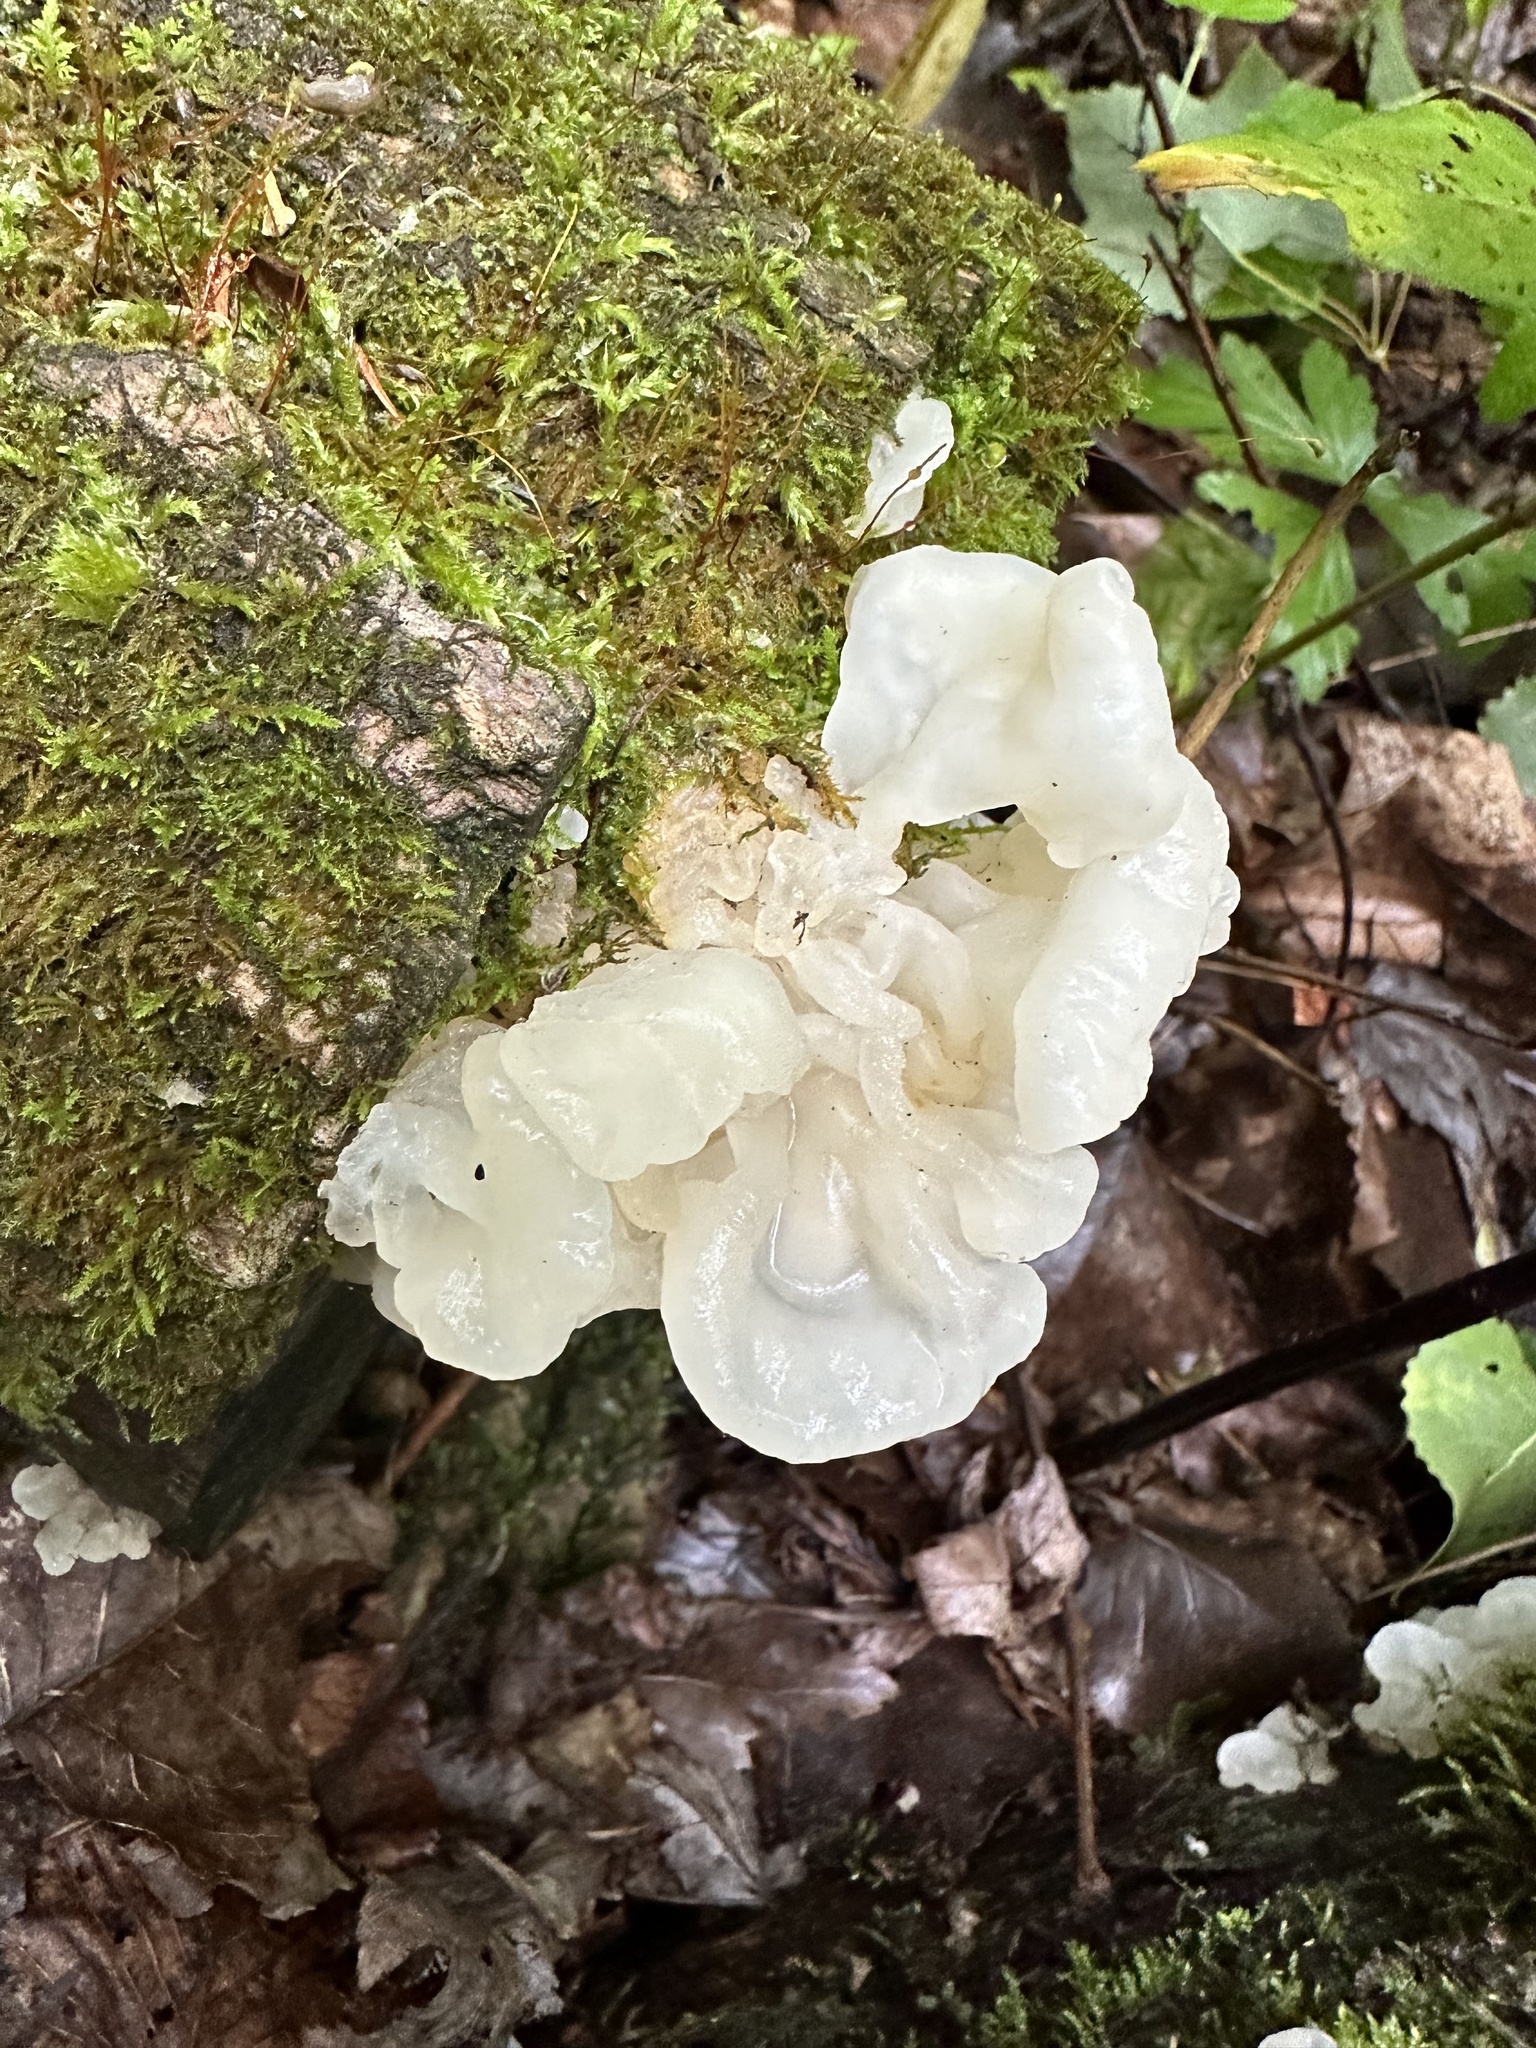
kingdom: Fungi
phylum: Basidiomycota
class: Agaricomycetes
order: Auriculariales
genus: Ductifera
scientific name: Ductifera pululahuana
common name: White jelly fungus
